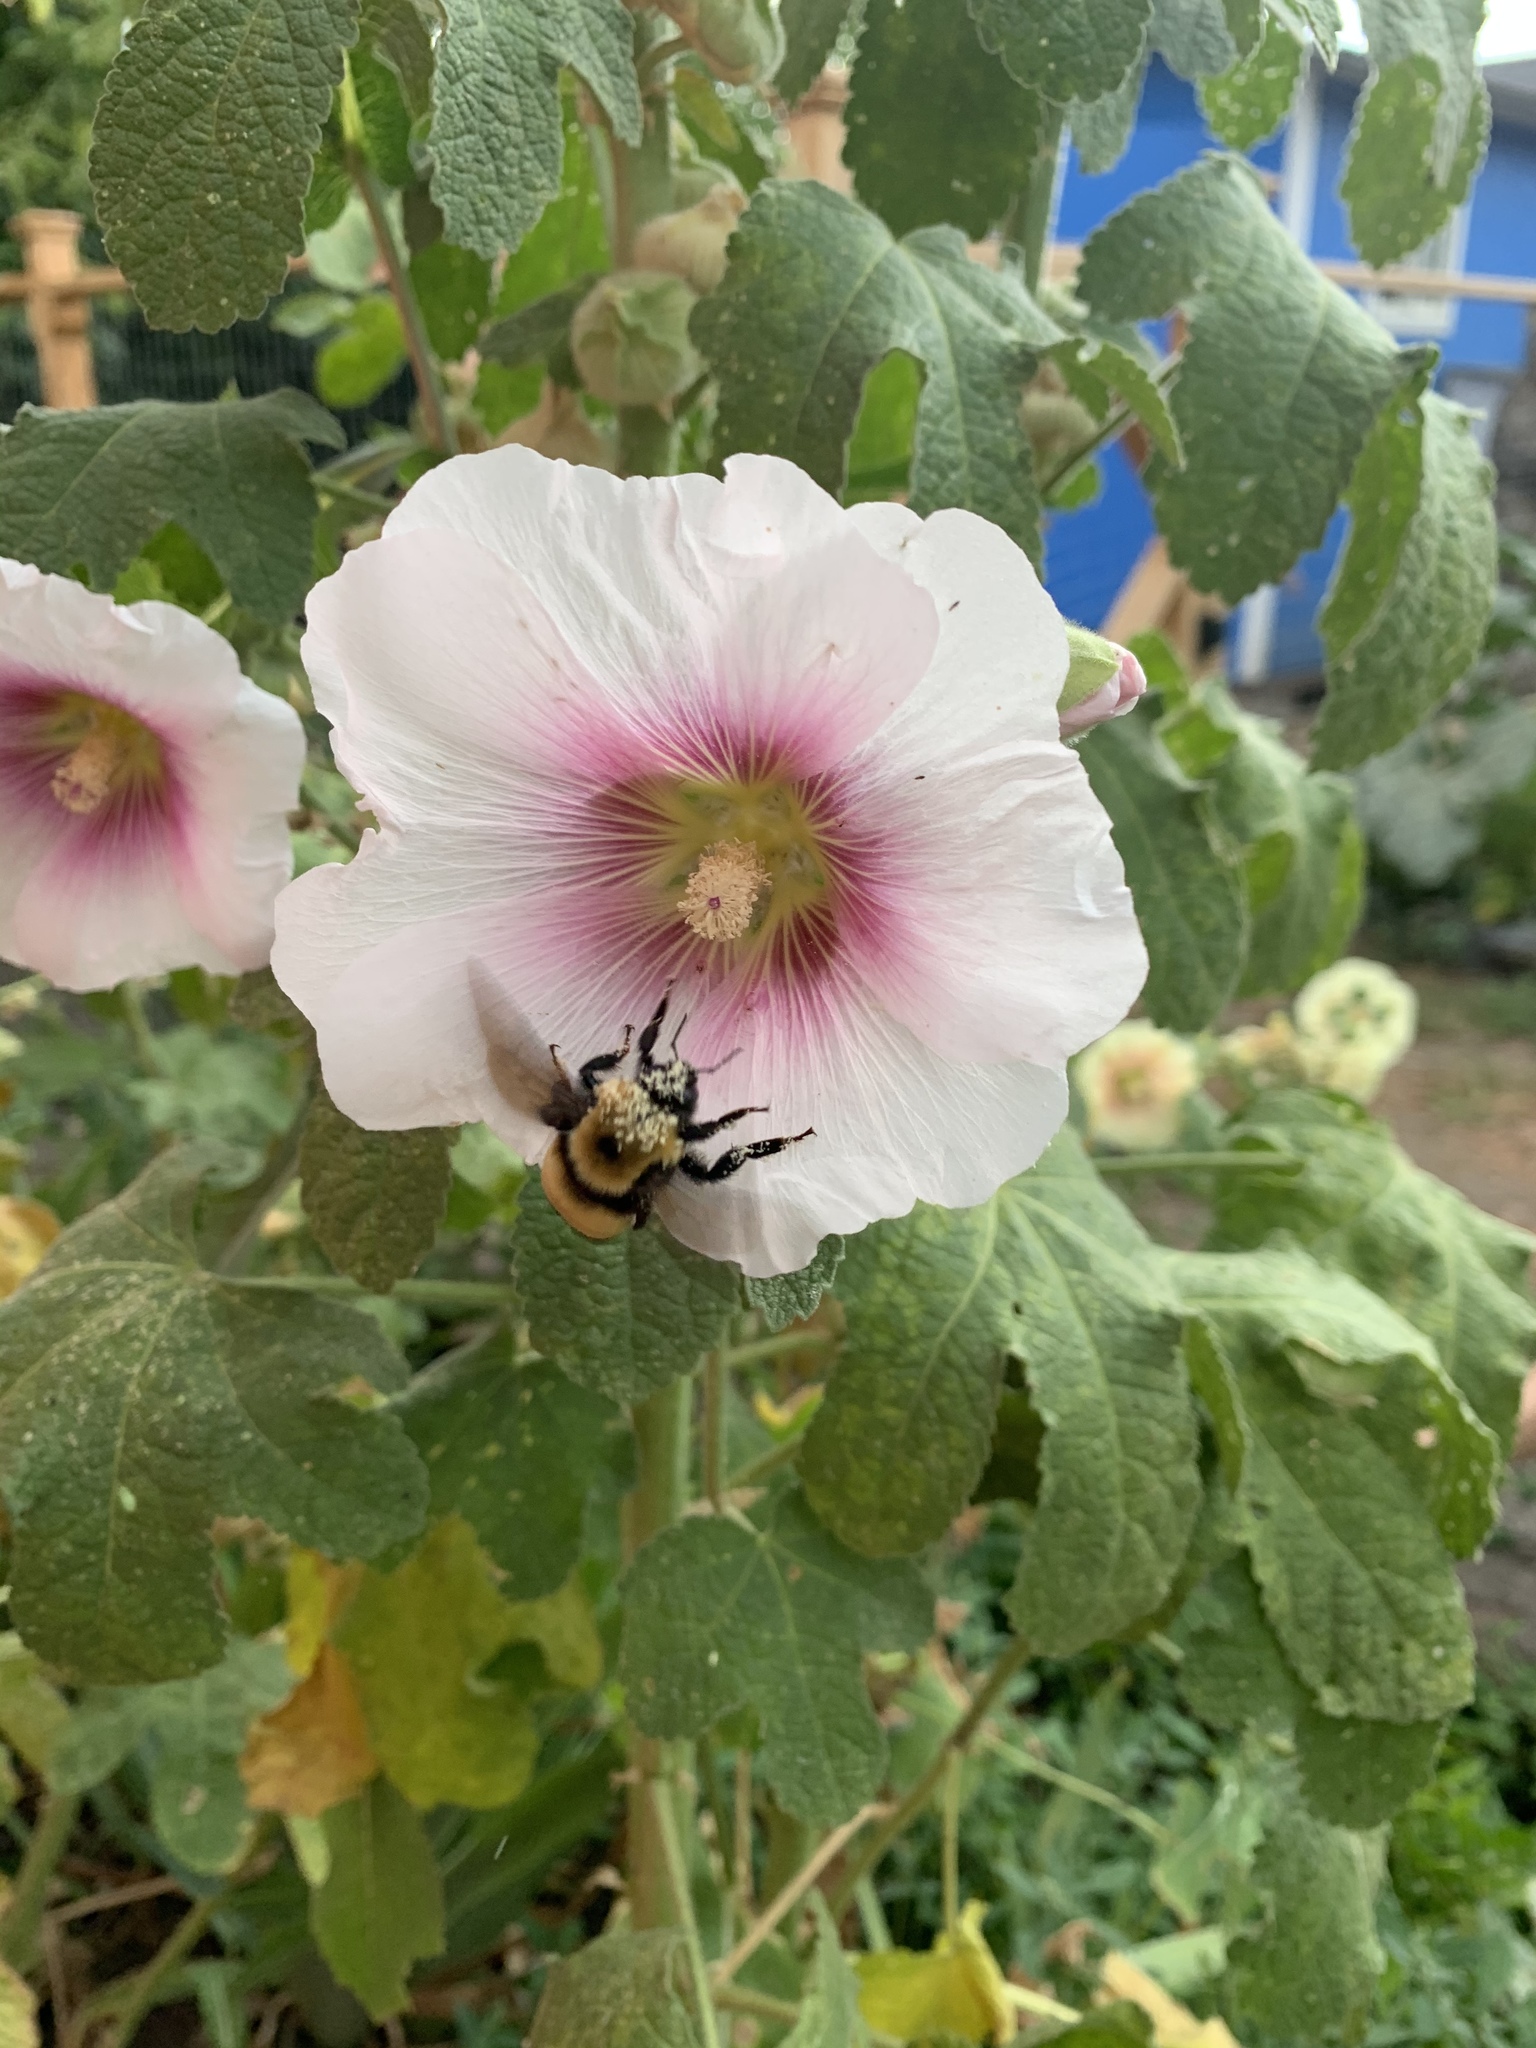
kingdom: Animalia
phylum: Arthropoda
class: Insecta
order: Hymenoptera
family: Apidae
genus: Bombus
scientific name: Bombus nevadensis
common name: Nevada bumble bee
